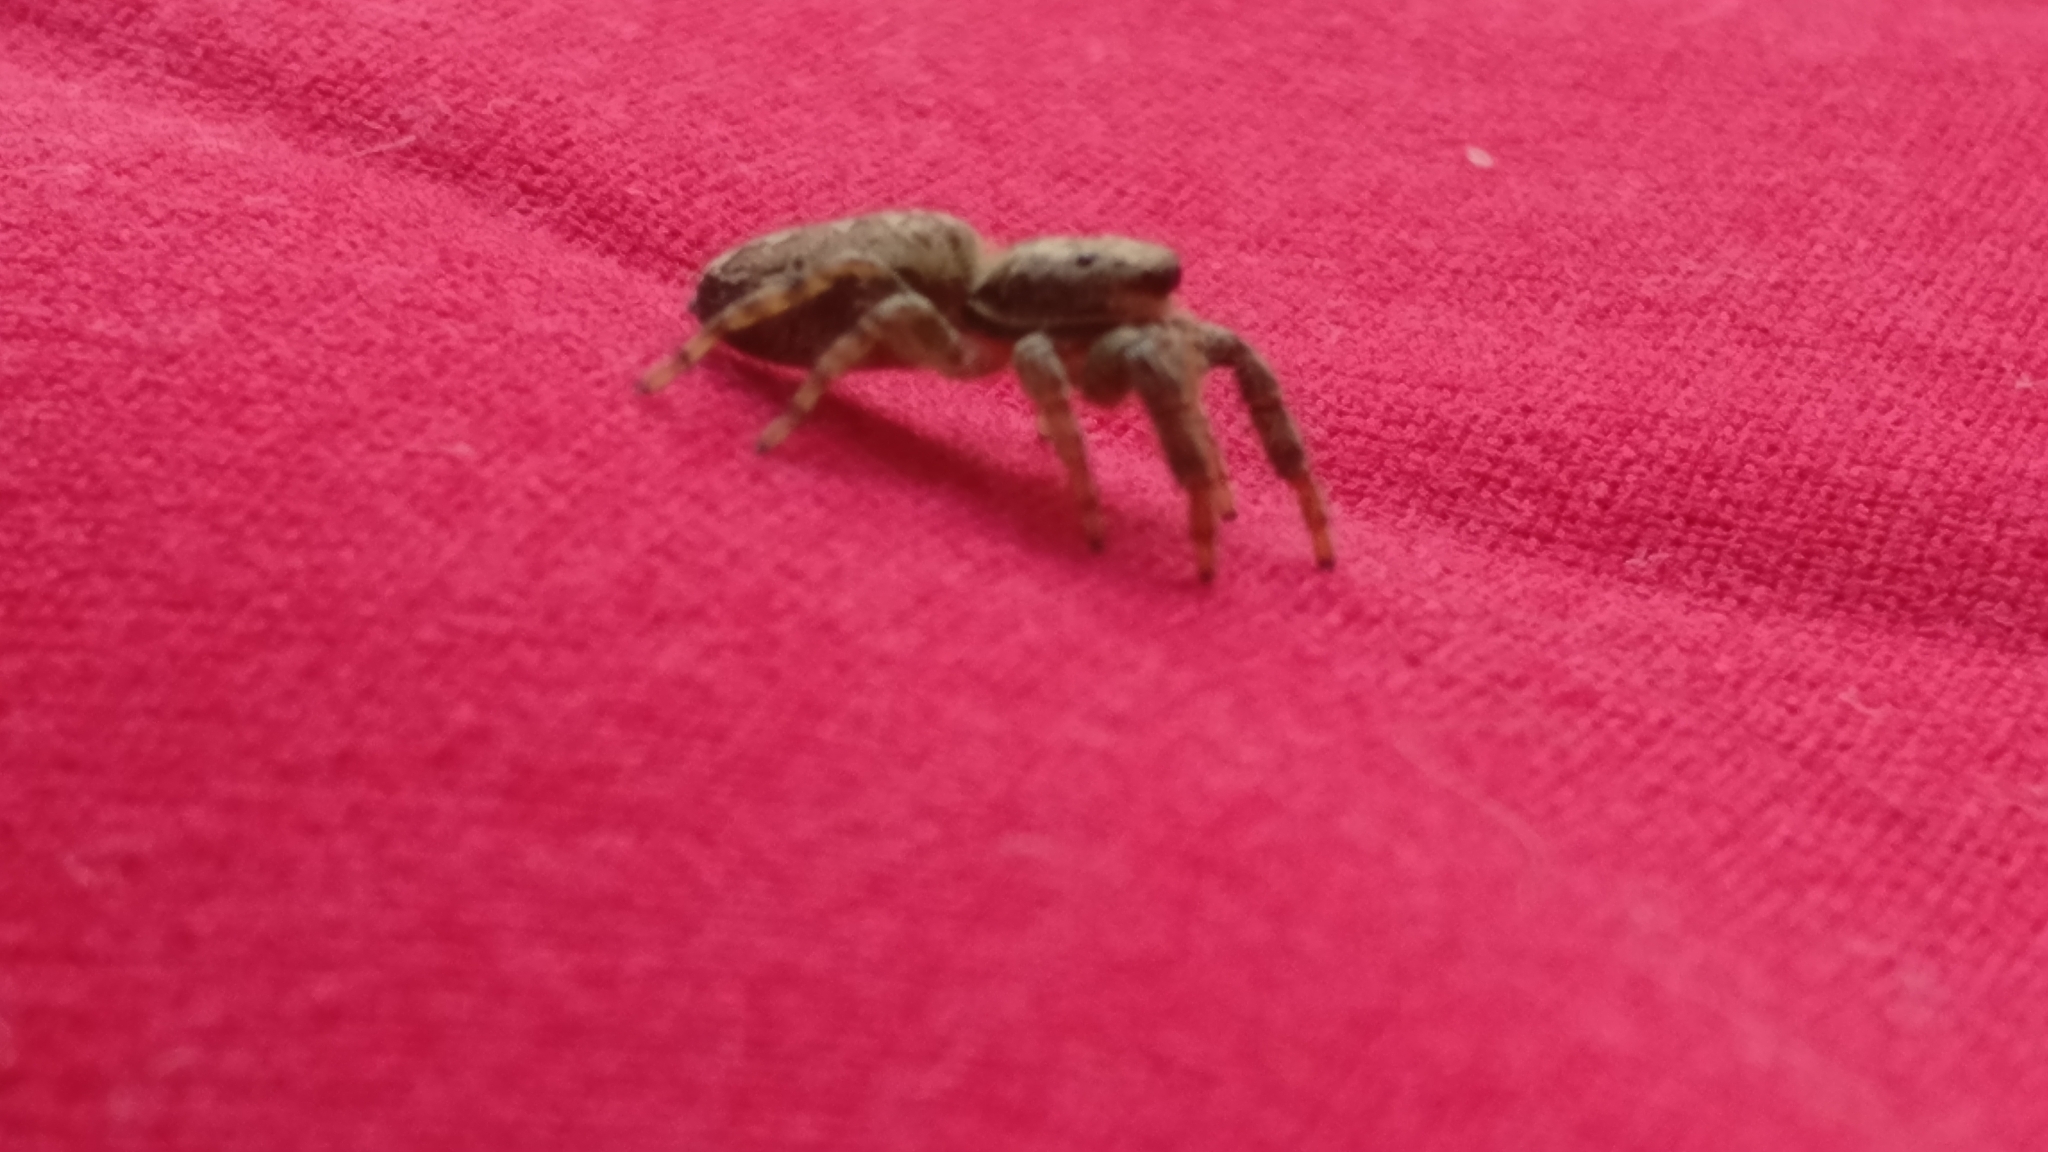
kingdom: Animalia
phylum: Arthropoda
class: Arachnida
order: Araneae
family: Salticidae
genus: Marpissa
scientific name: Marpissa muscosa
